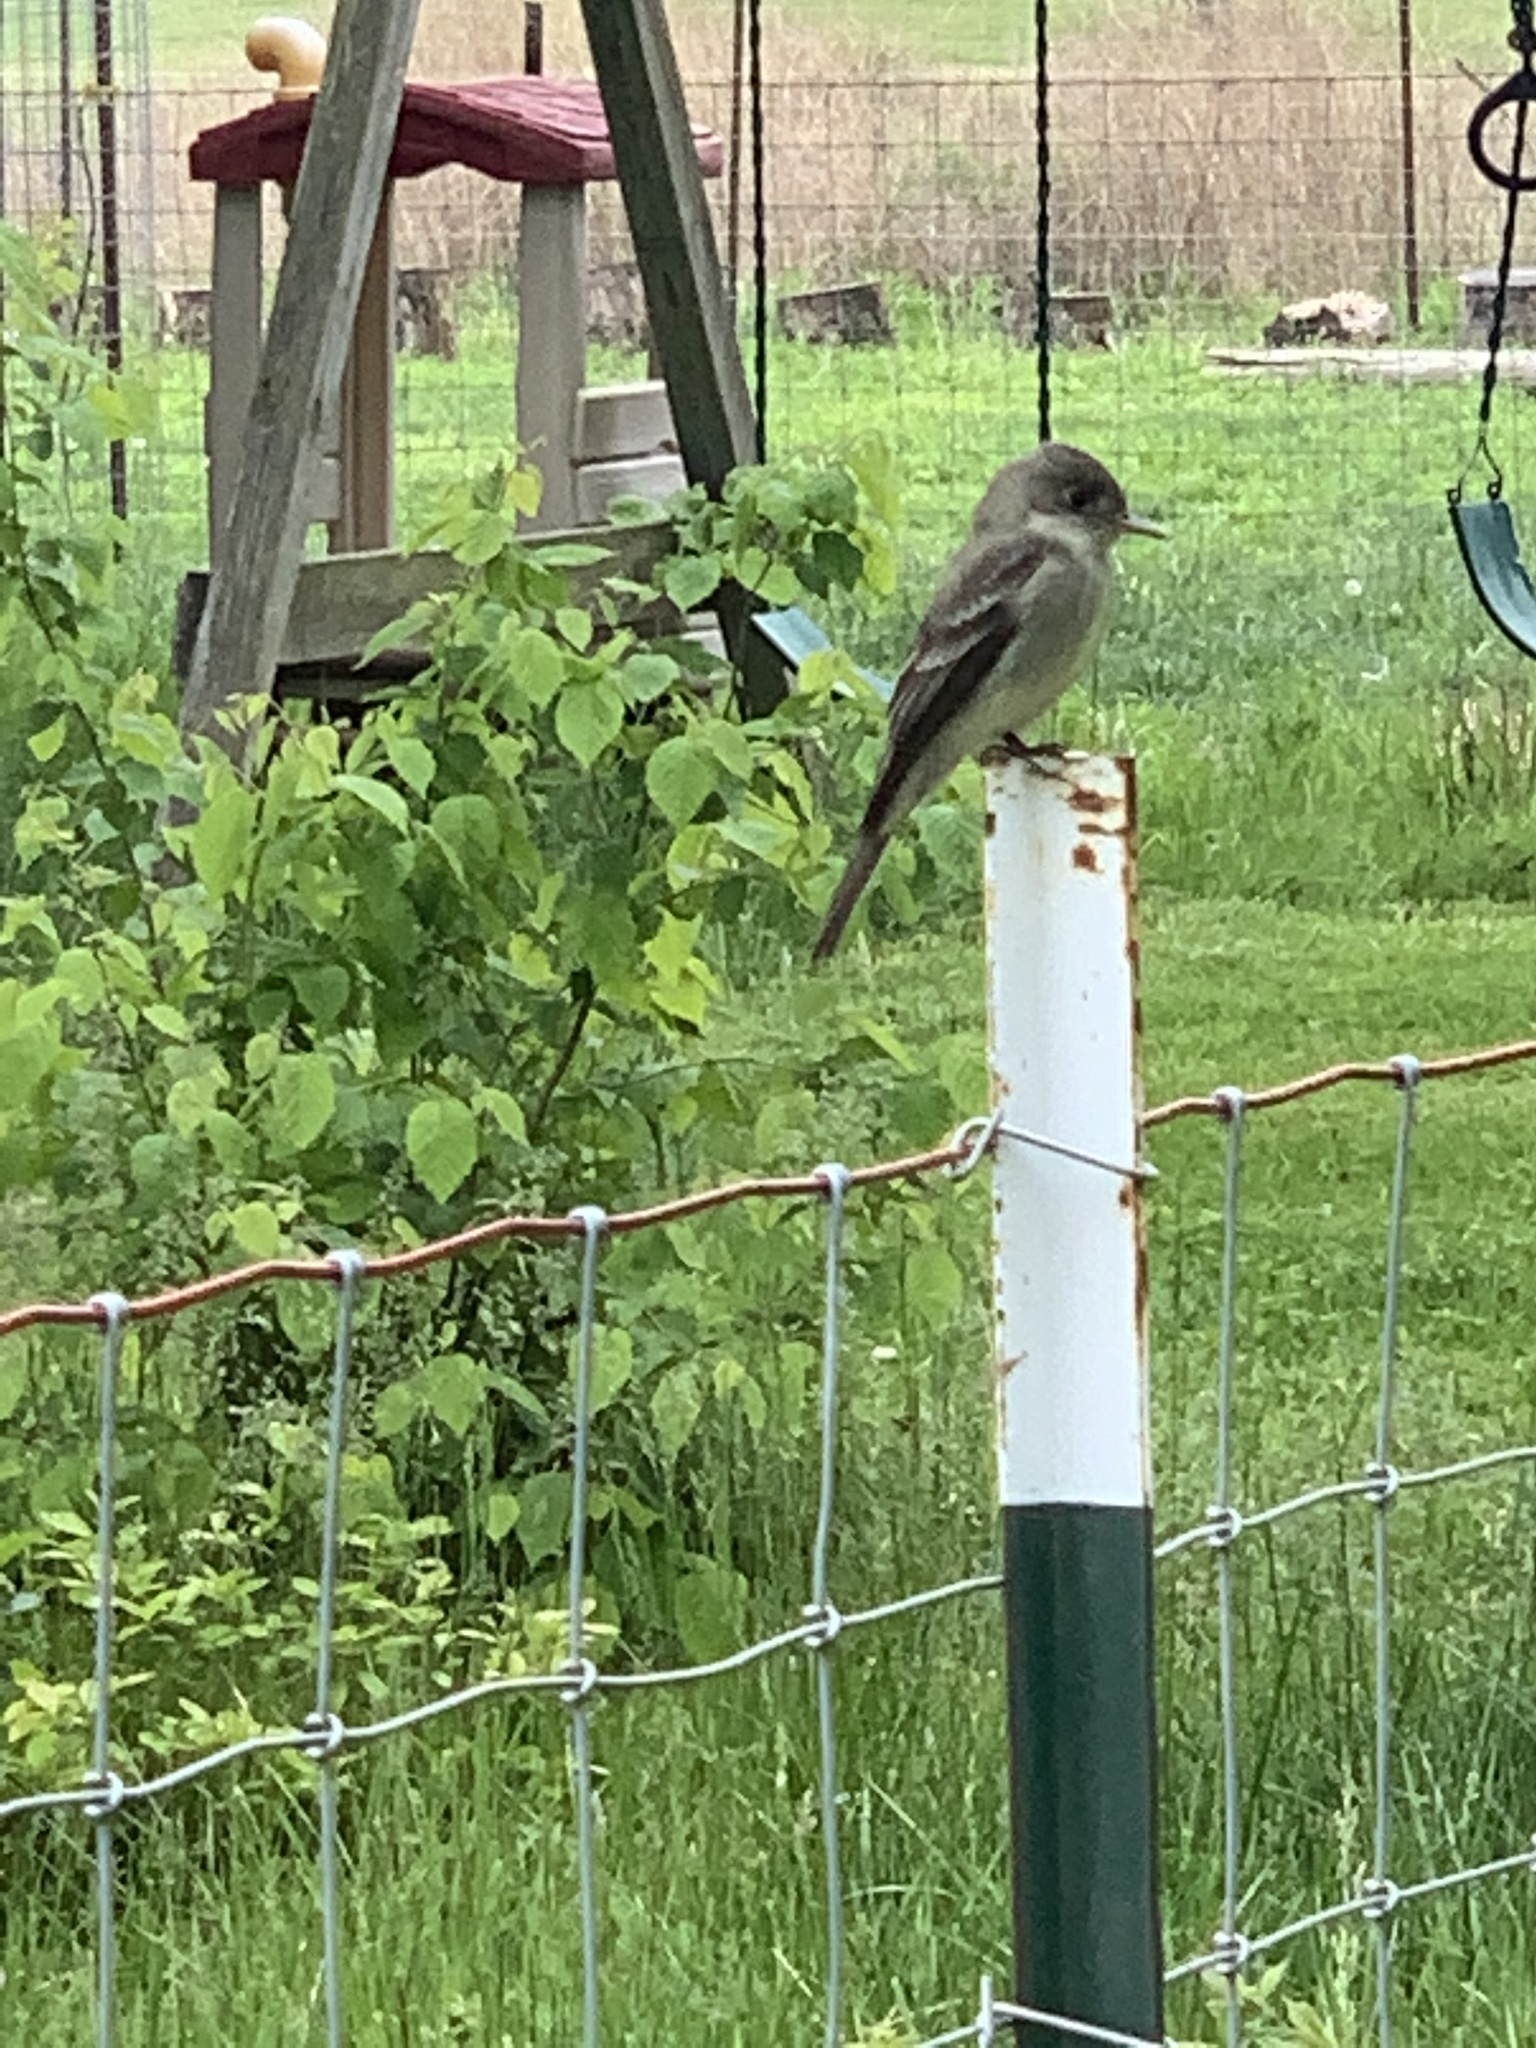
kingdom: Animalia
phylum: Chordata
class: Aves
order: Passeriformes
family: Tyrannidae
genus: Contopus
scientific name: Contopus virens
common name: Eastern wood-pewee
